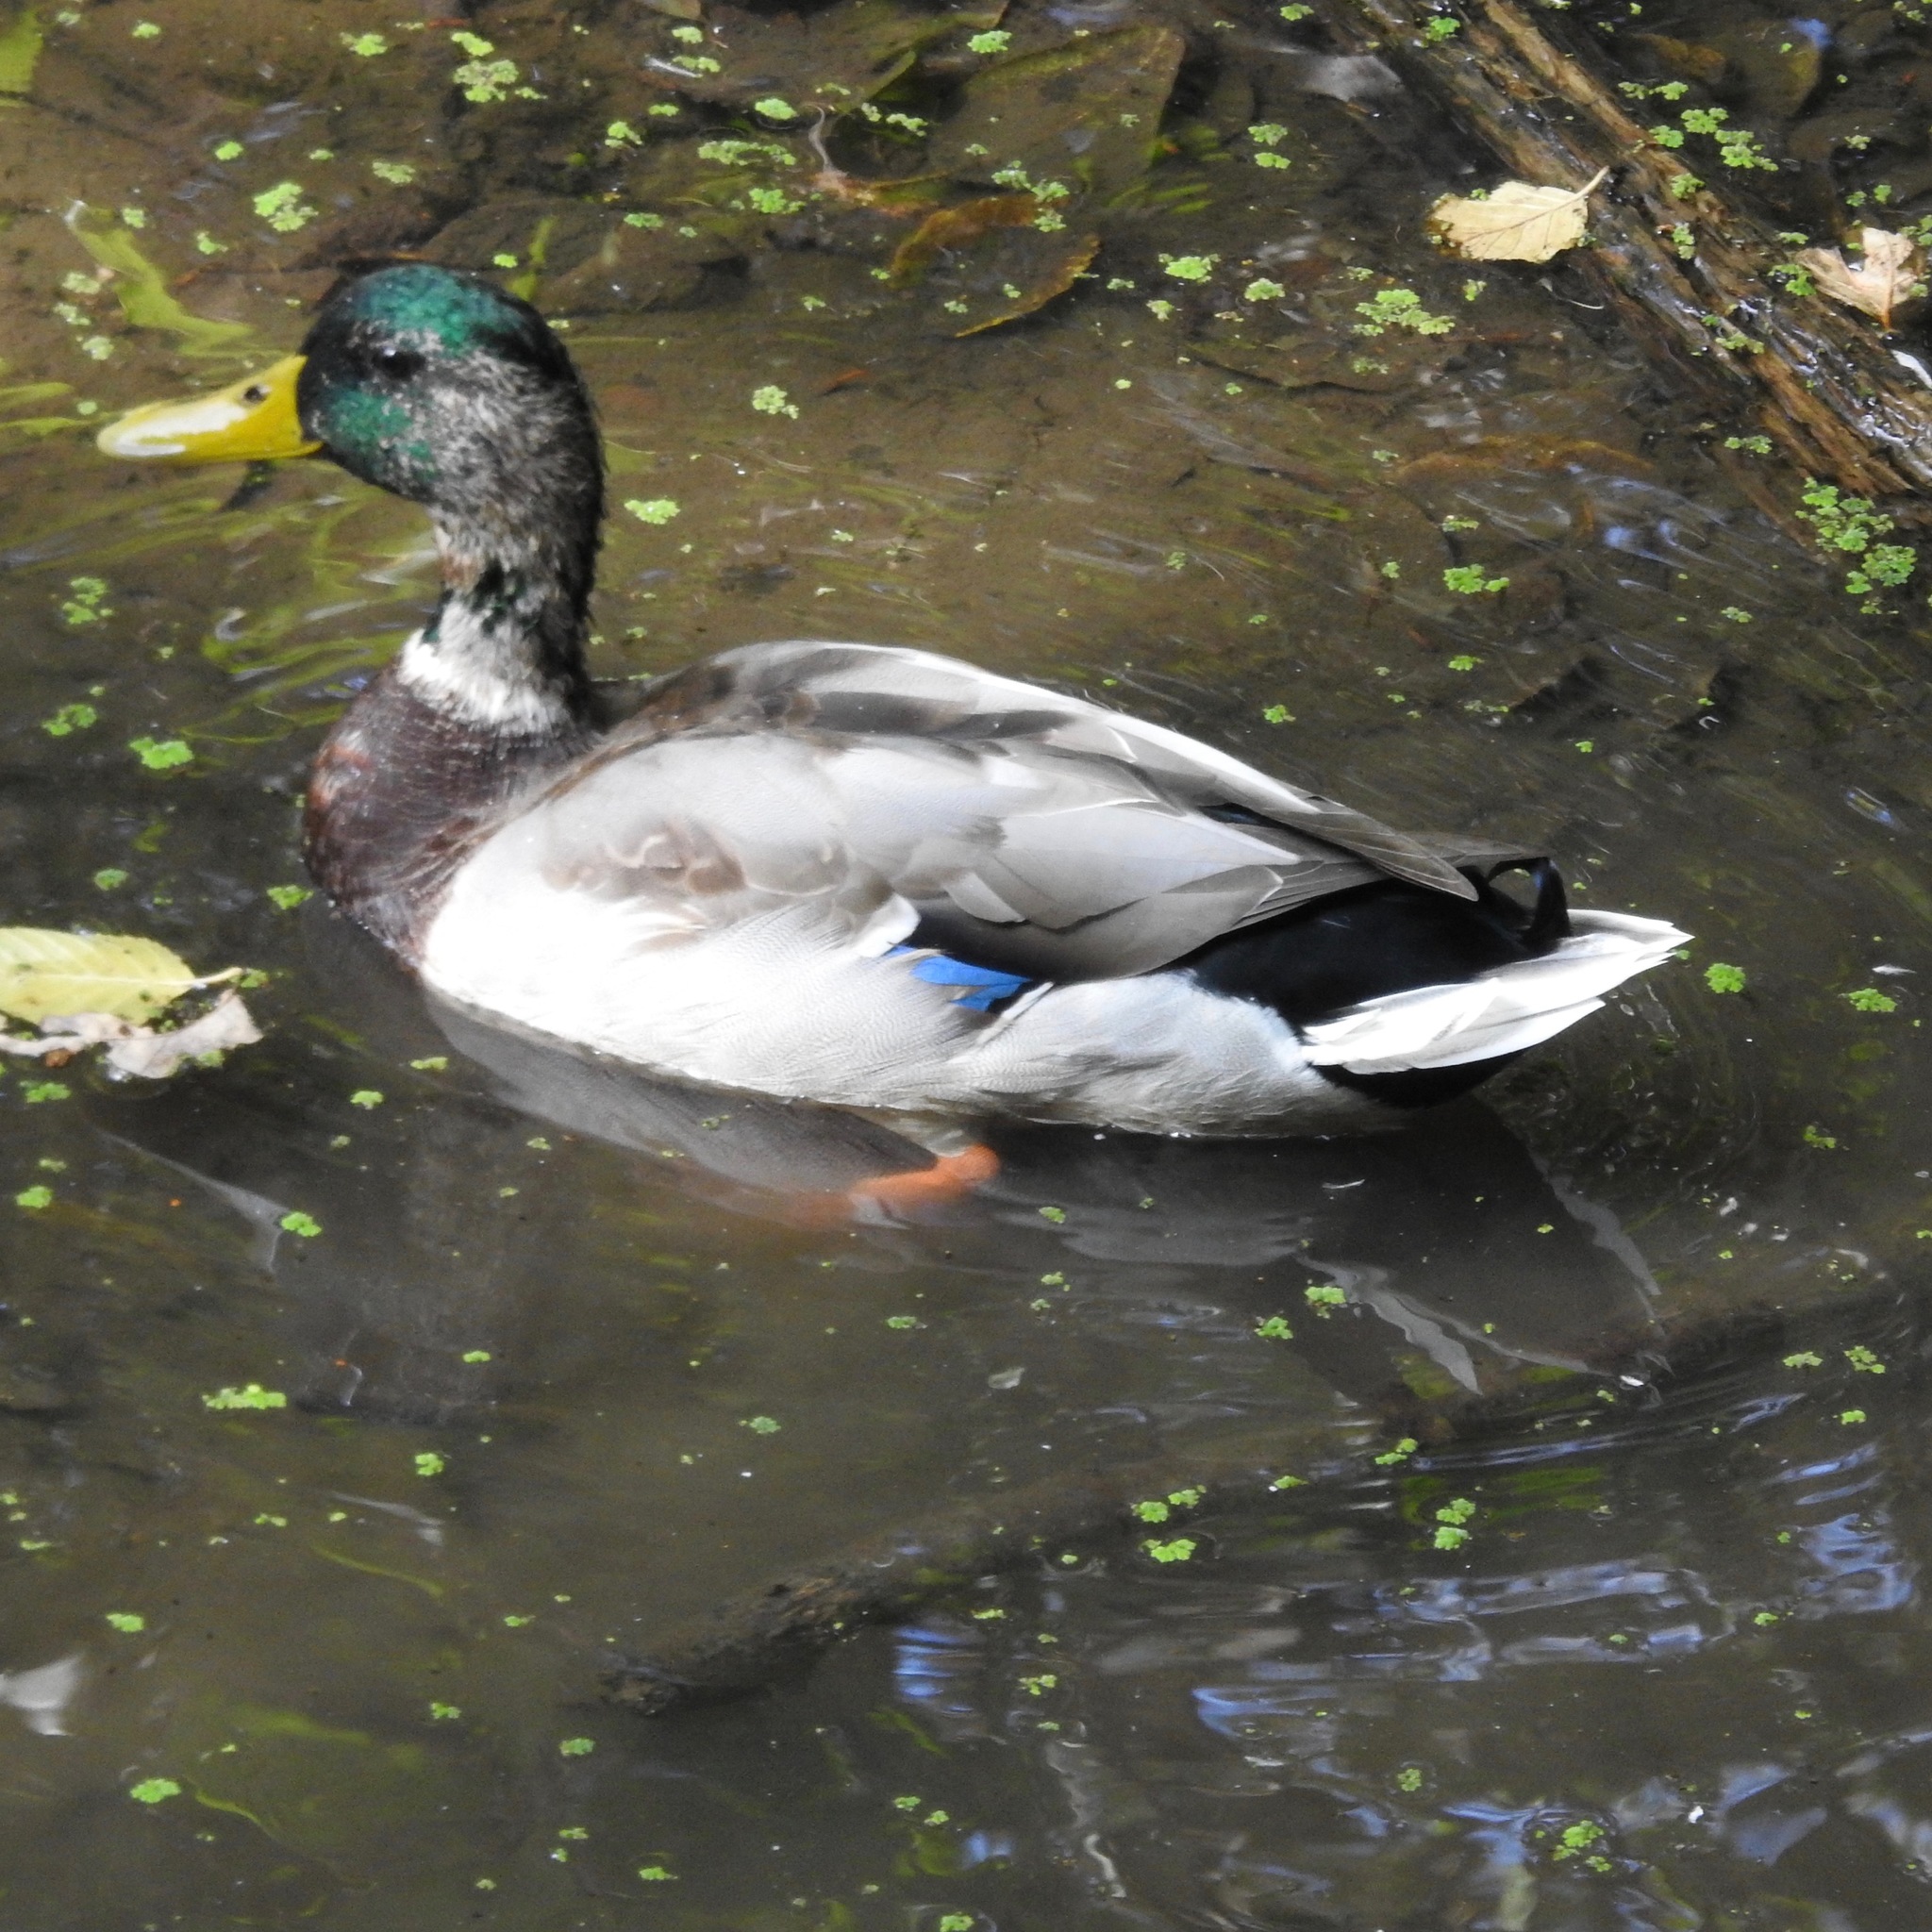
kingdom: Animalia
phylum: Chordata
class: Aves
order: Anseriformes
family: Anatidae
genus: Anas
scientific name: Anas platyrhynchos
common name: Mallard
